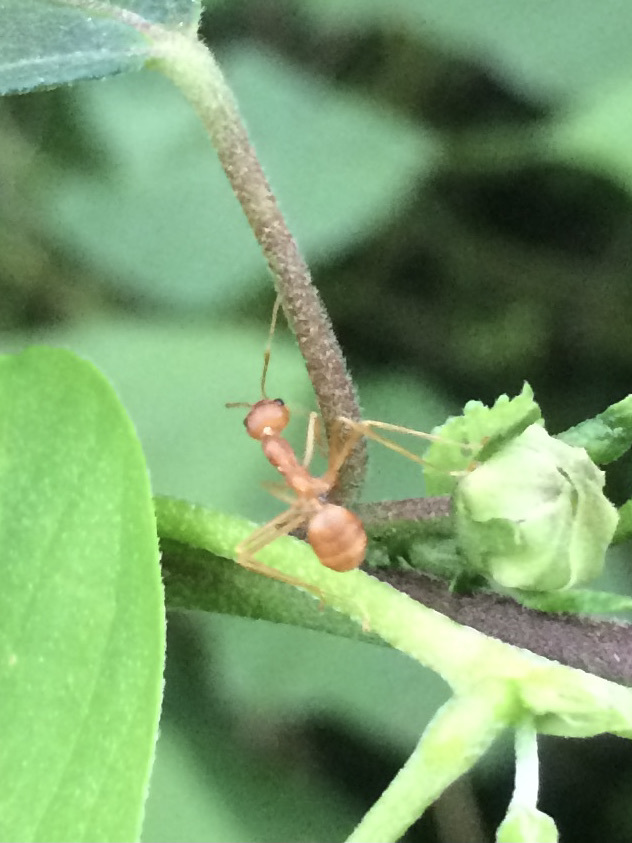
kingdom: Animalia
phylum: Arthropoda
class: Insecta
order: Hymenoptera
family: Formicidae
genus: Oecophylla
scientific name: Oecophylla smaragdina
